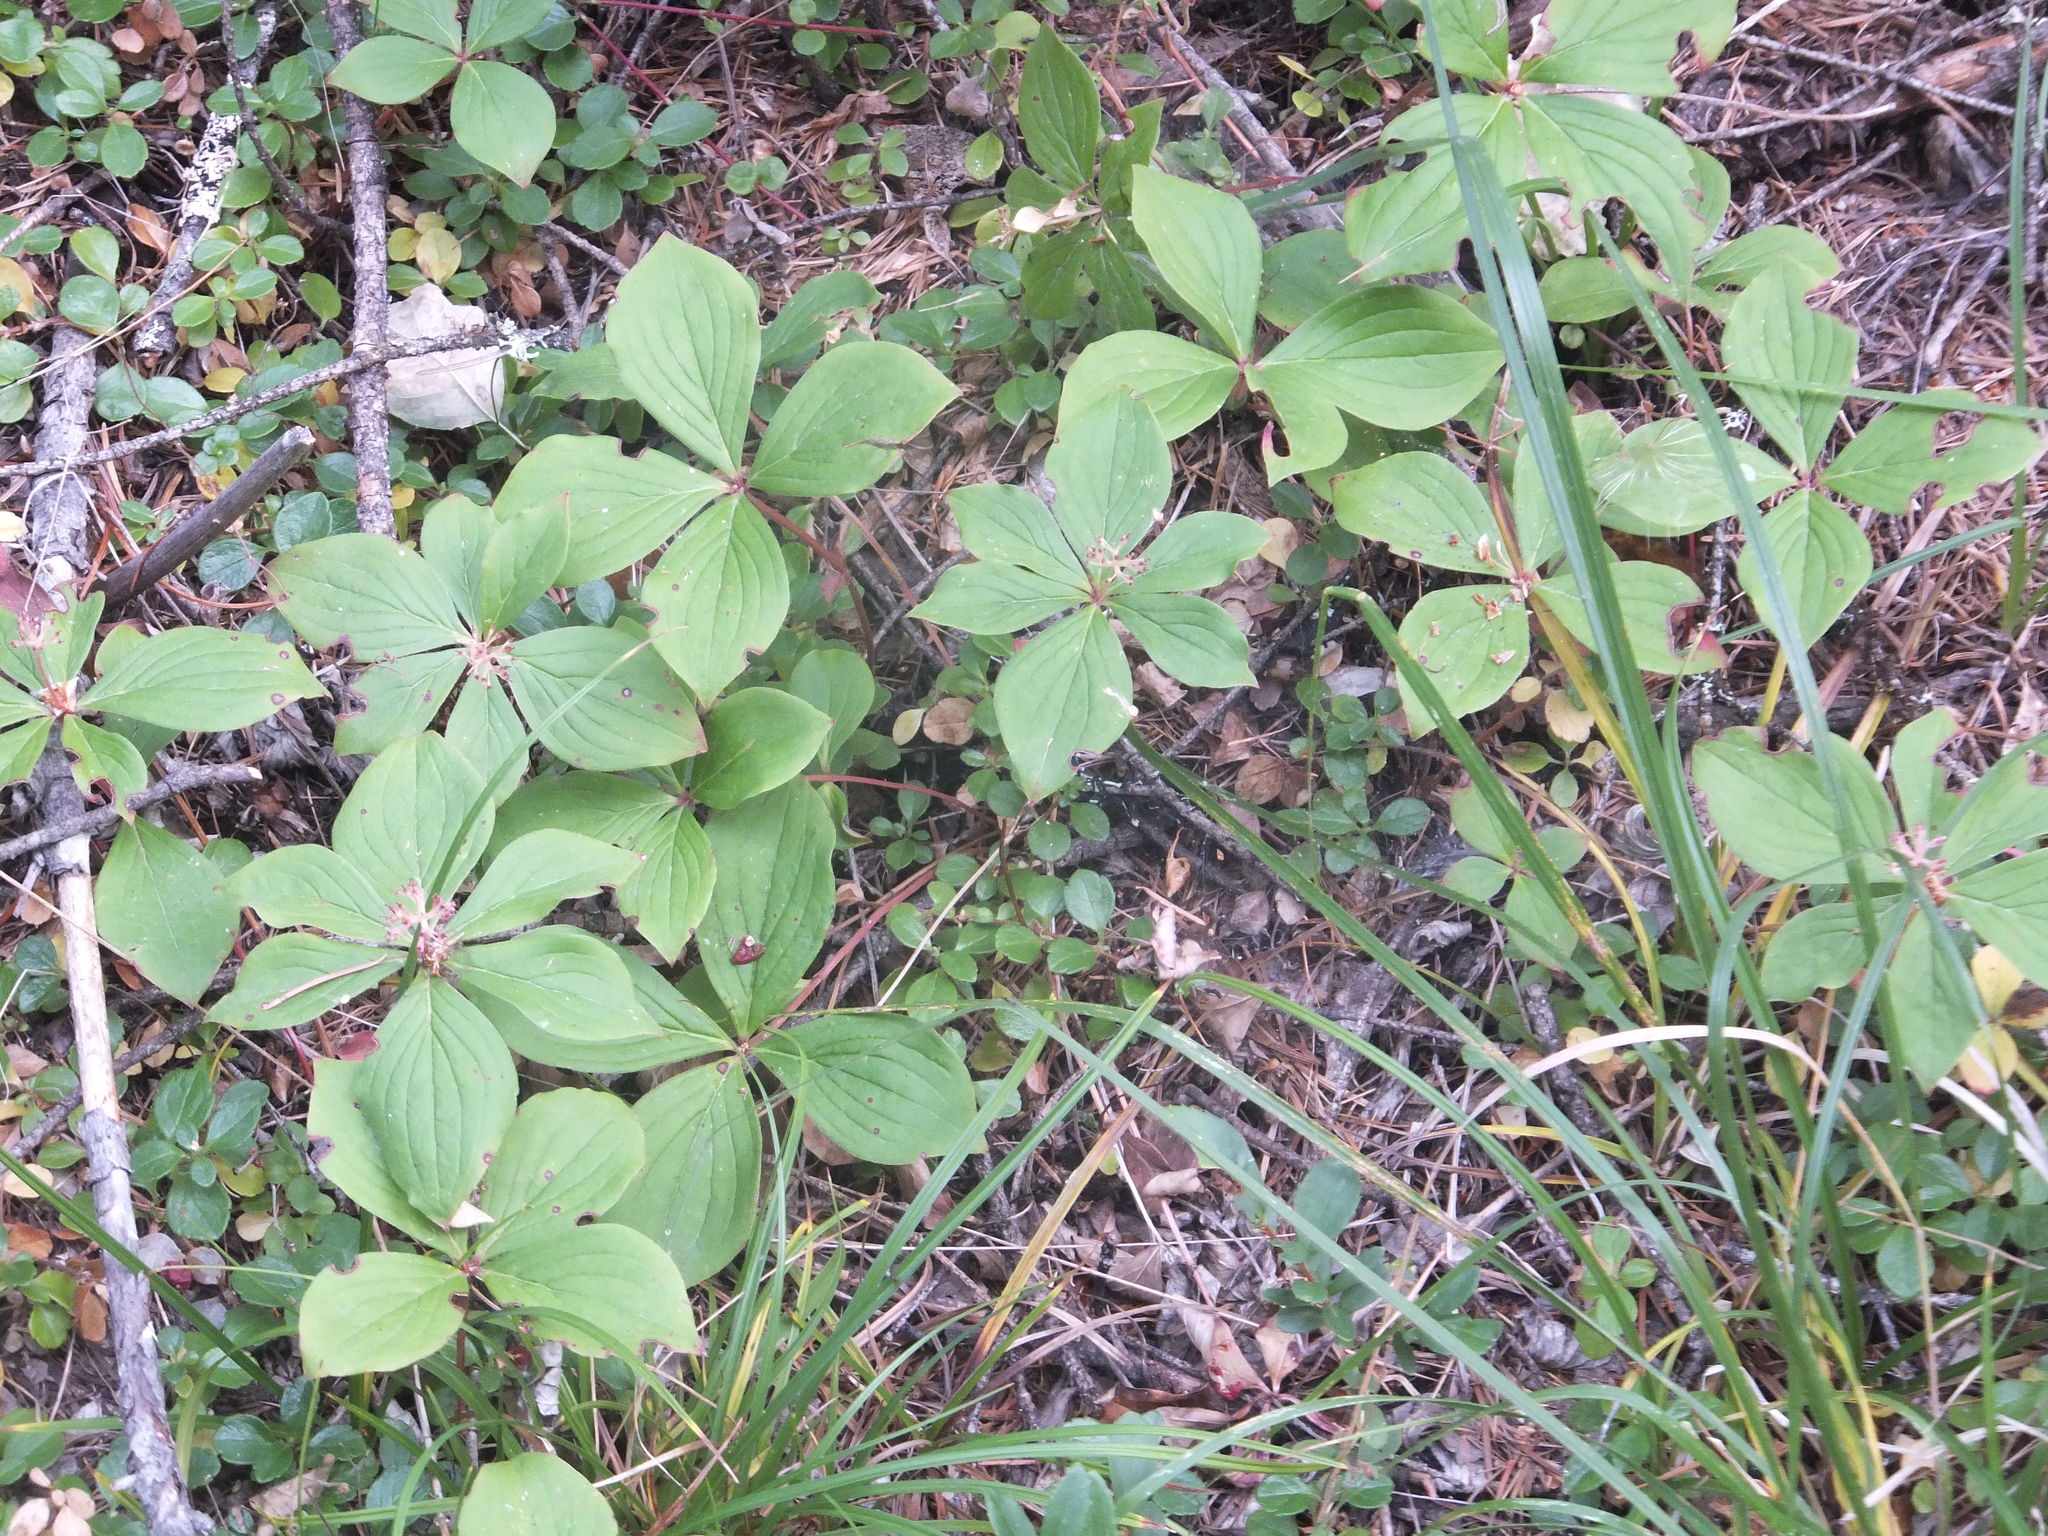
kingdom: Plantae
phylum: Tracheophyta
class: Magnoliopsida
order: Cornales
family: Cornaceae
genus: Cornus
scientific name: Cornus unalaschkensis
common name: Alaska bunchberry
